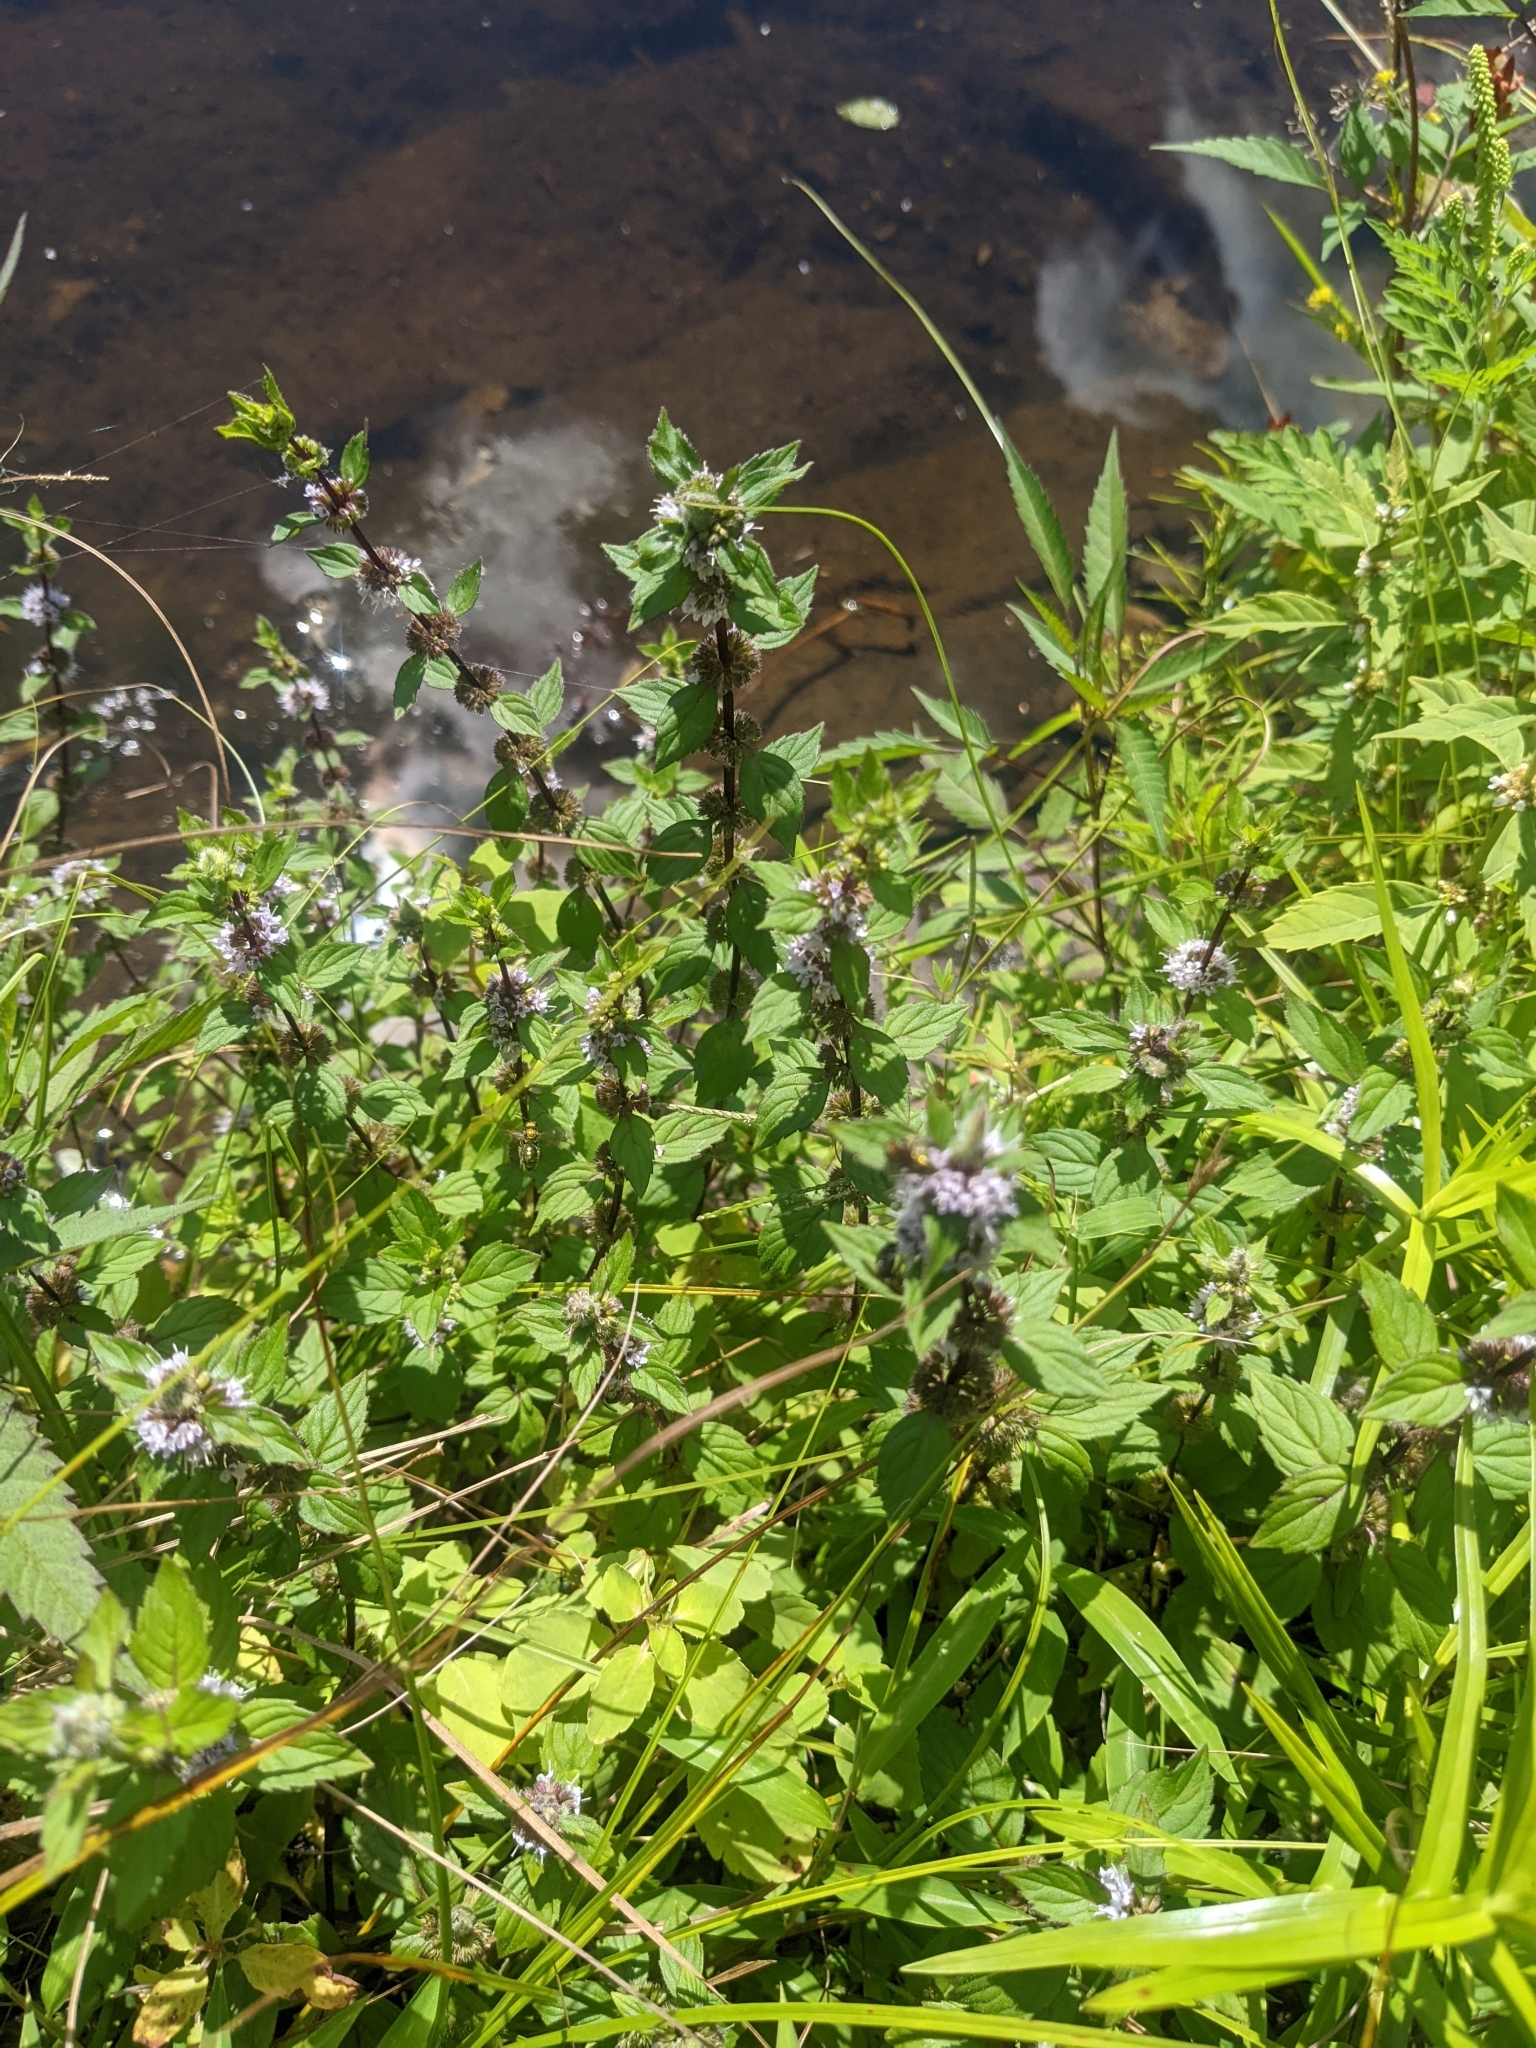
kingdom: Plantae
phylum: Tracheophyta
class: Magnoliopsida
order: Lamiales
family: Lamiaceae
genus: Mentha
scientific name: Mentha canadensis
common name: American corn mint
